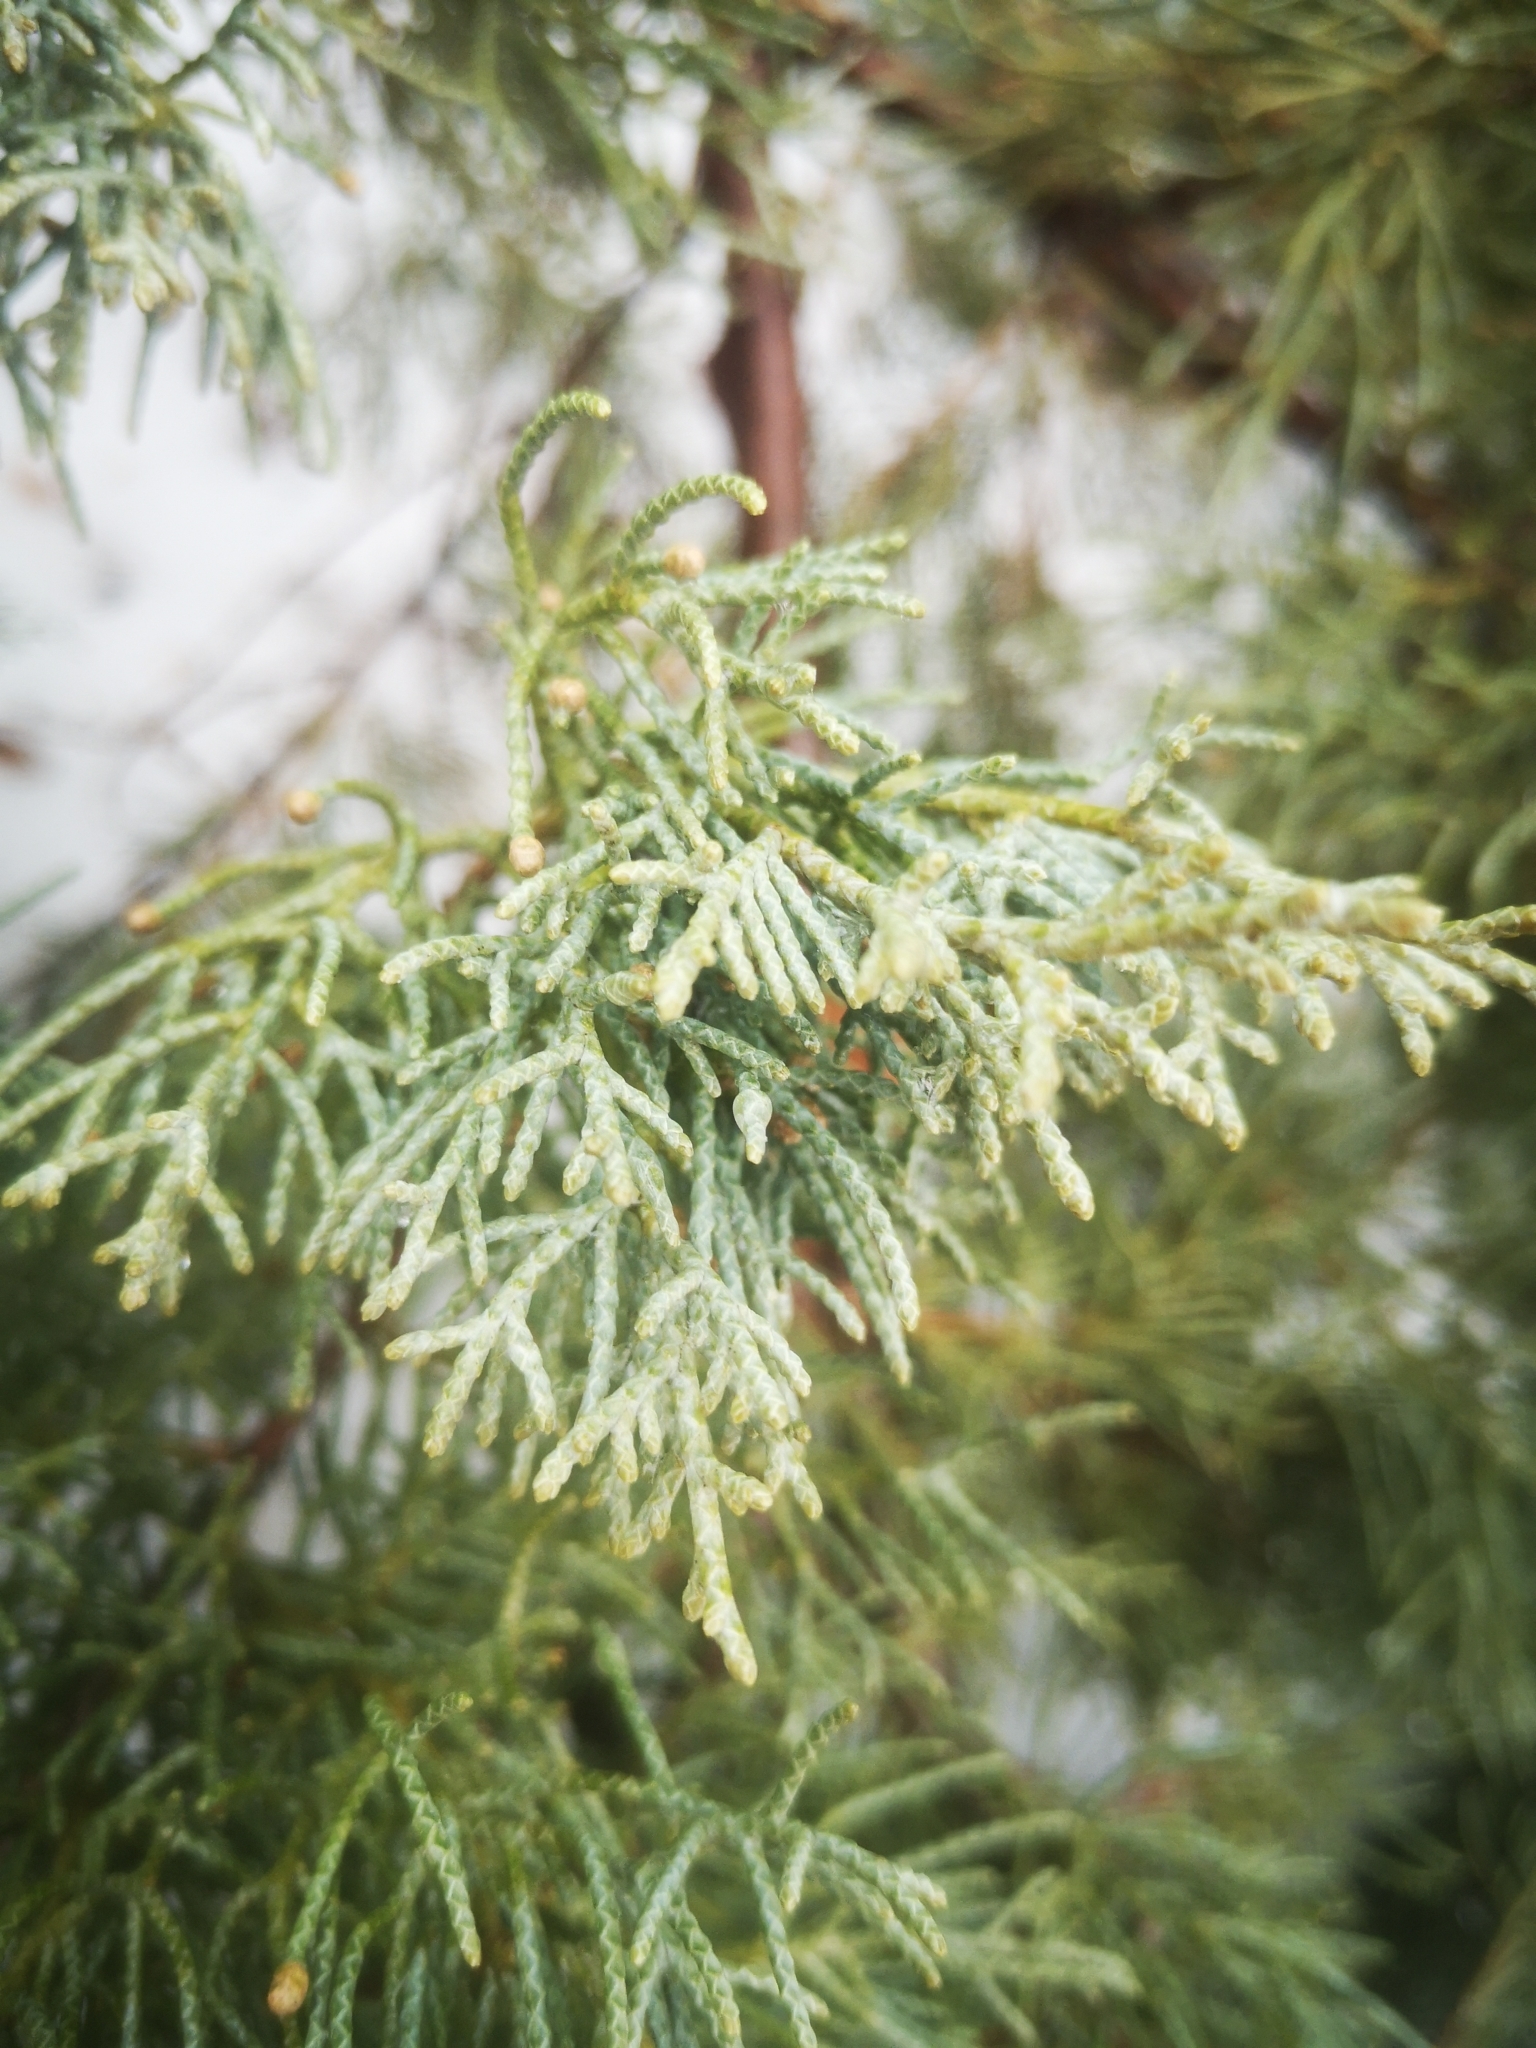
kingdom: Plantae
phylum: Tracheophyta
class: Pinopsida
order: Pinales
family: Cupressaceae
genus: Juniperus
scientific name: Juniperus virginiana
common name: Red juniper
